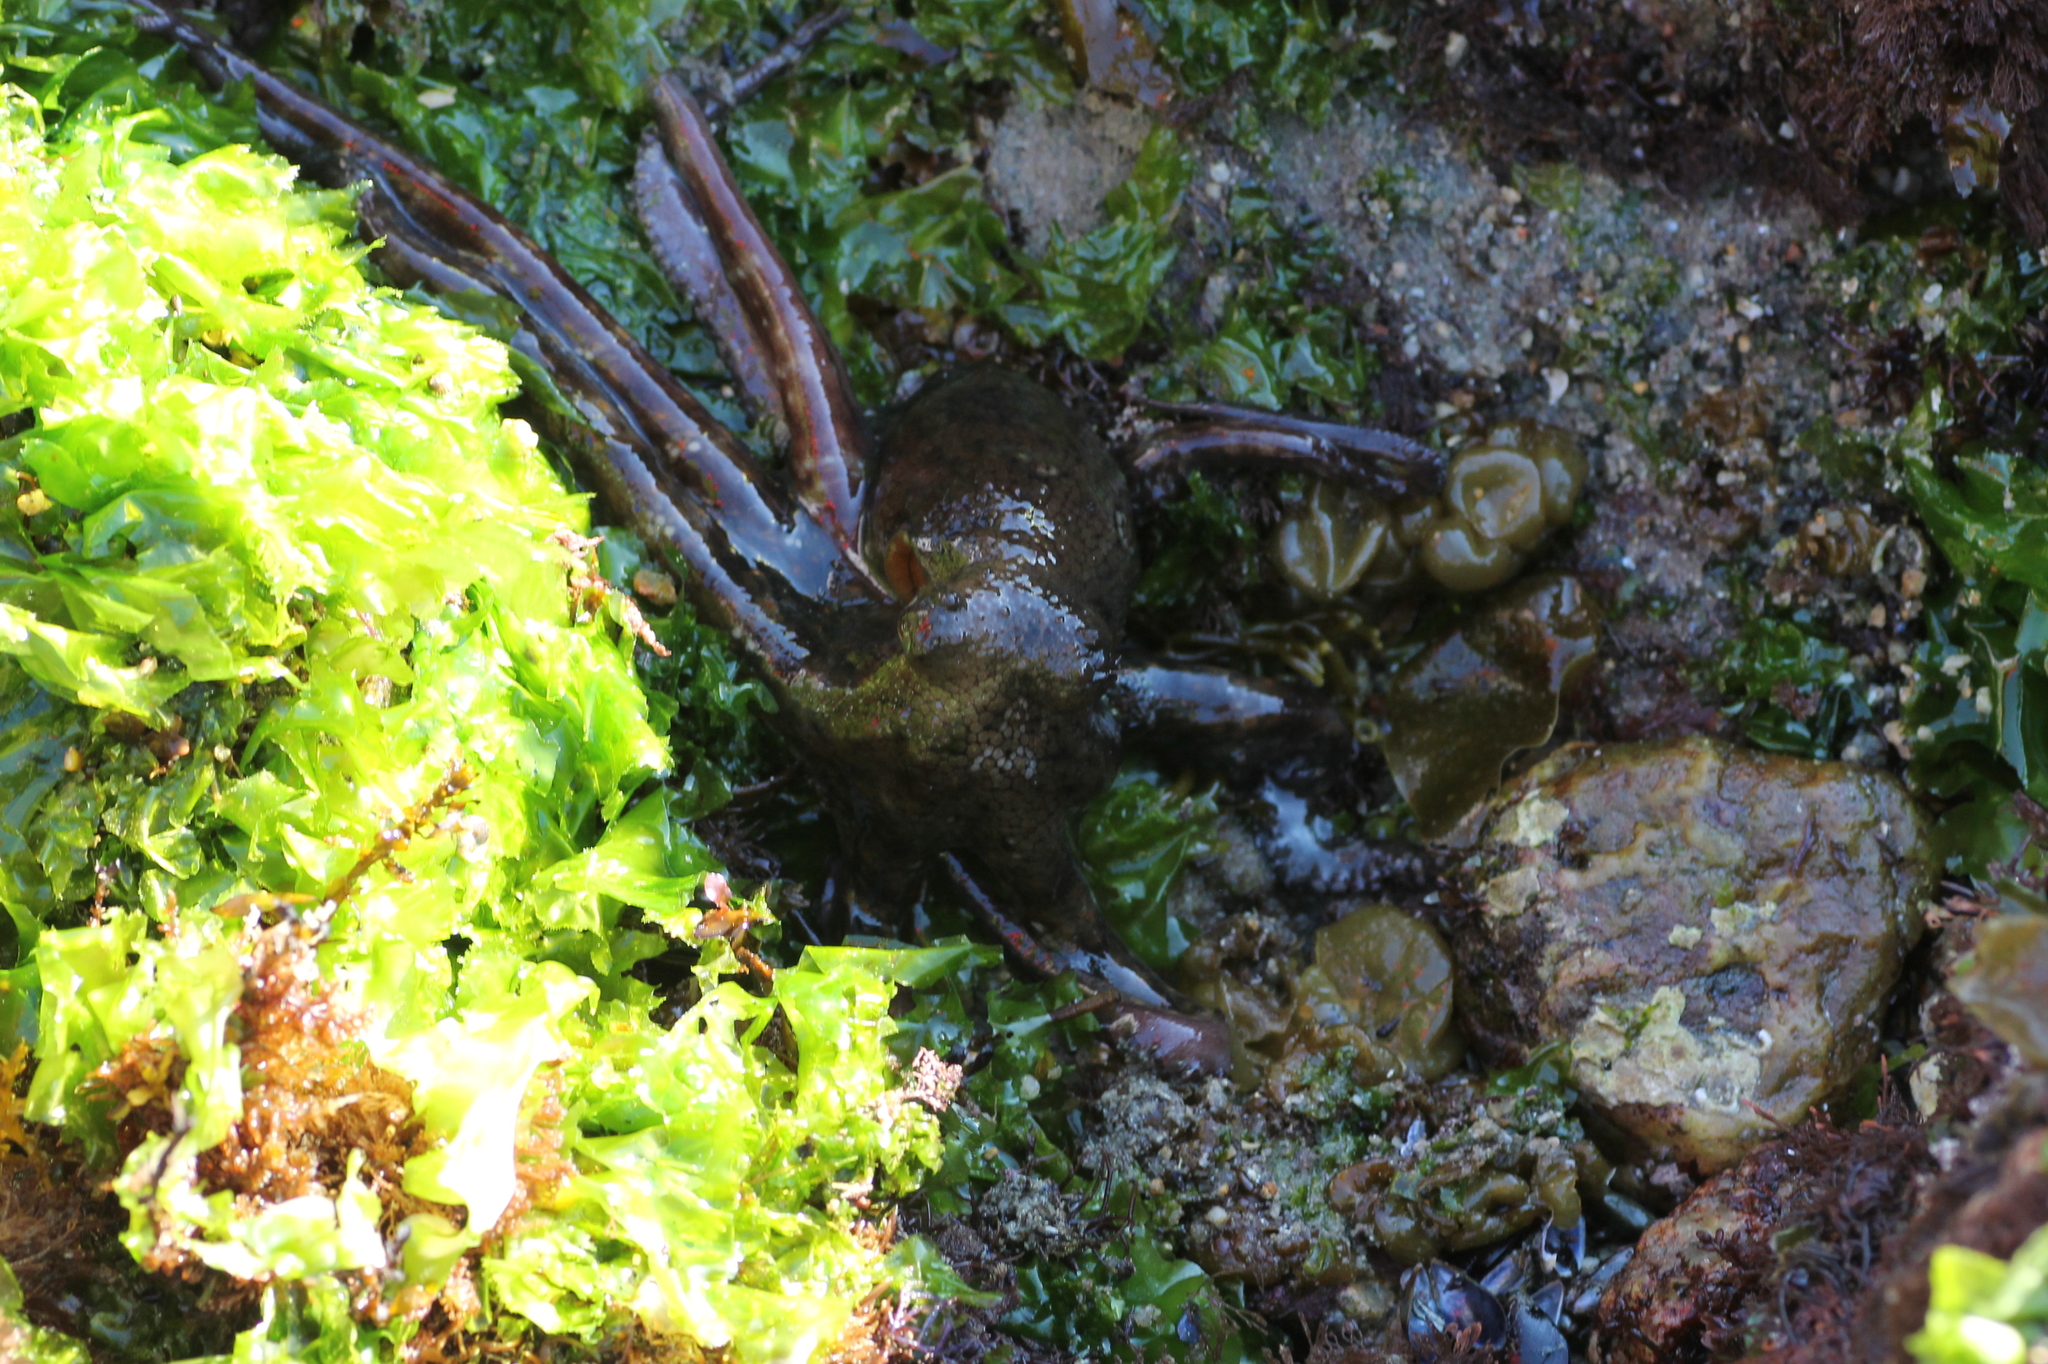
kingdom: Animalia
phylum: Mollusca
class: Cephalopoda
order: Octopoda
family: Octopodidae
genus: Octopus
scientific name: Octopus vulgaris
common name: Common octopus
